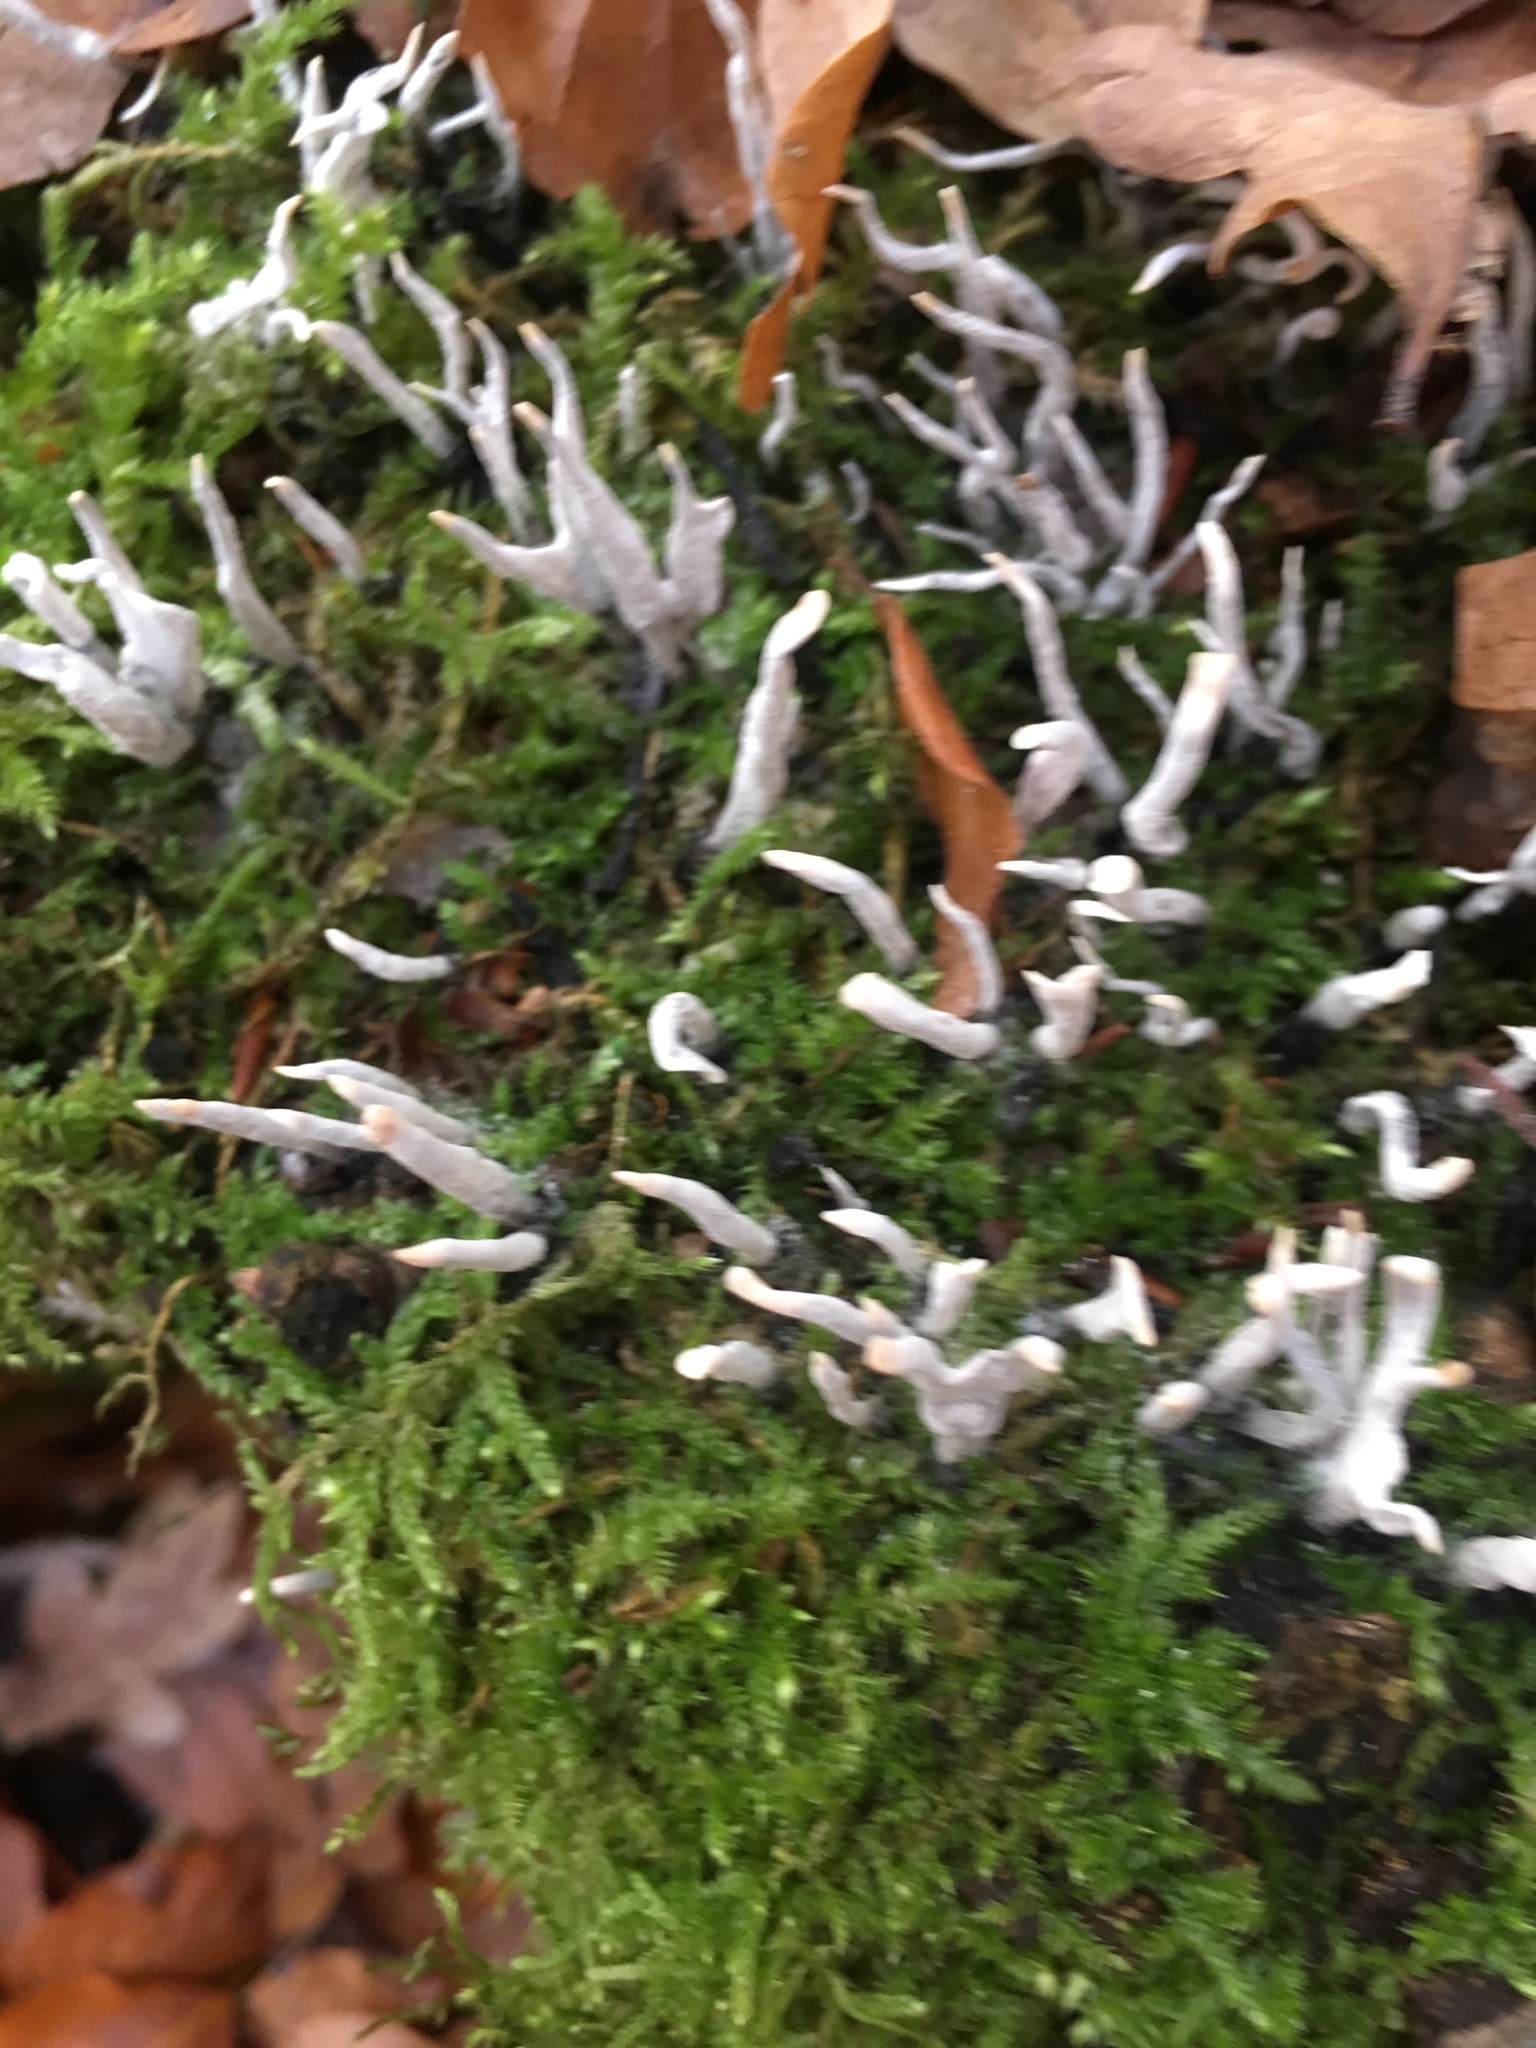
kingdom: Fungi
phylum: Ascomycota
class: Sordariomycetes
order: Xylariales
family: Xylariaceae
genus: Xylaria
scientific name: Xylaria hypoxylon
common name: Candle-snuff fungus
